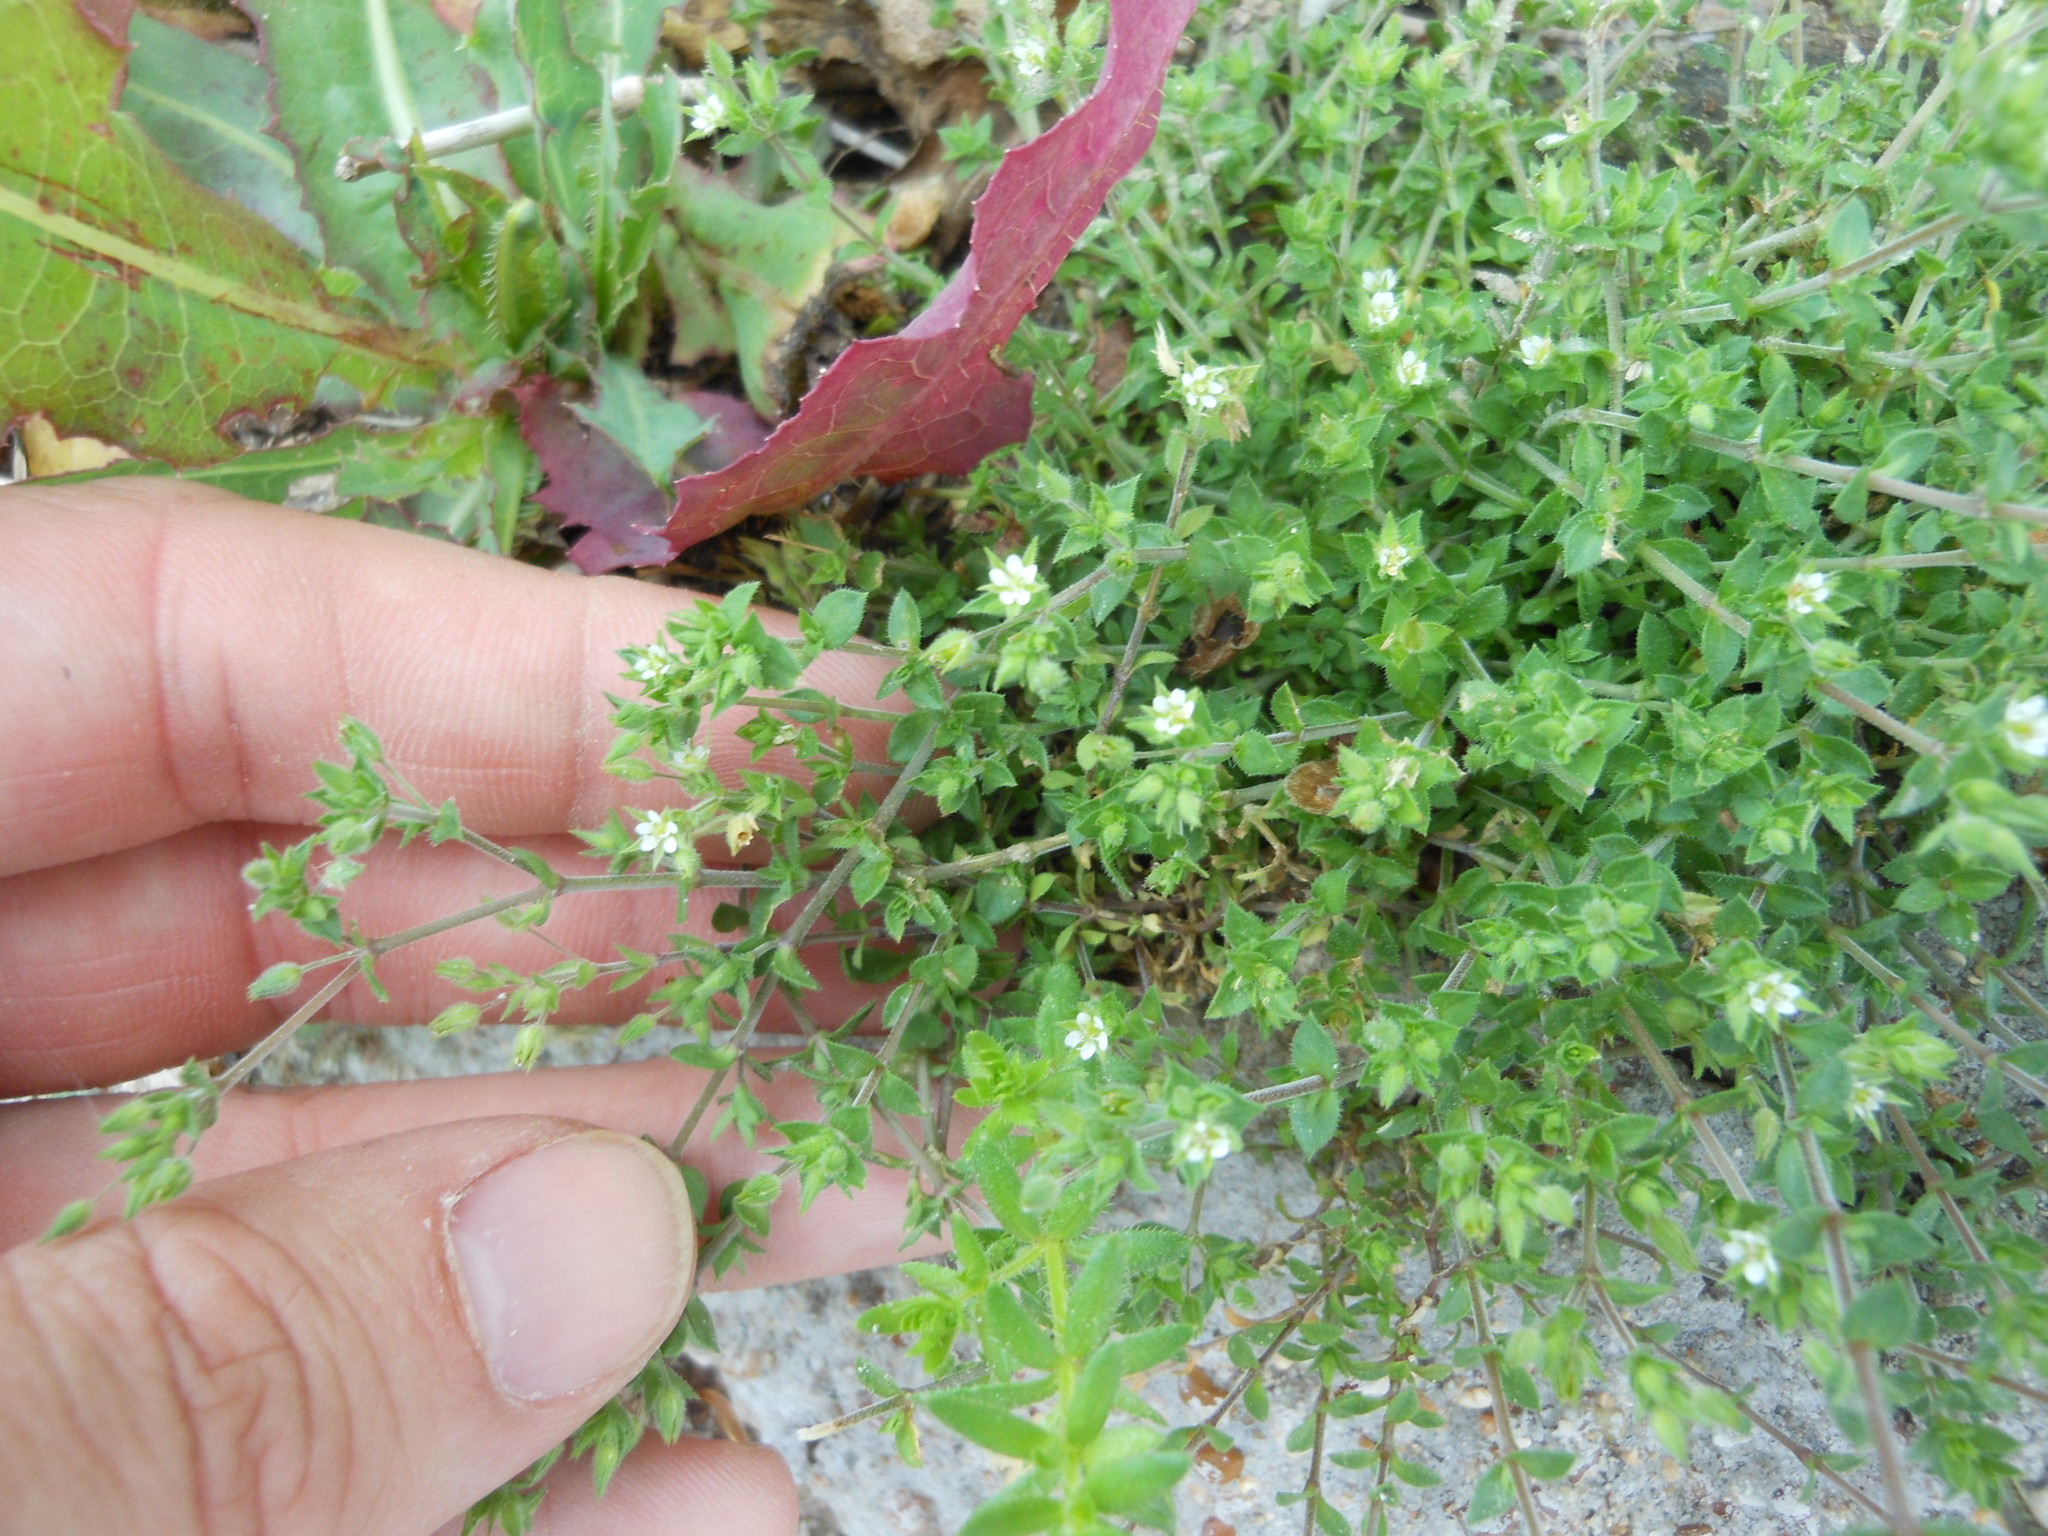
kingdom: Plantae
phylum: Tracheophyta
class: Magnoliopsida
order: Caryophyllales
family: Caryophyllaceae
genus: Arenaria
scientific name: Arenaria serpyllifolia
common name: Thyme-leaved sandwort
